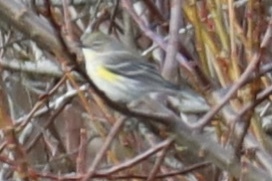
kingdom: Animalia
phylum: Chordata
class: Aves
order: Passeriformes
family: Parulidae
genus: Setophaga
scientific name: Setophaga coronata
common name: Myrtle warbler
